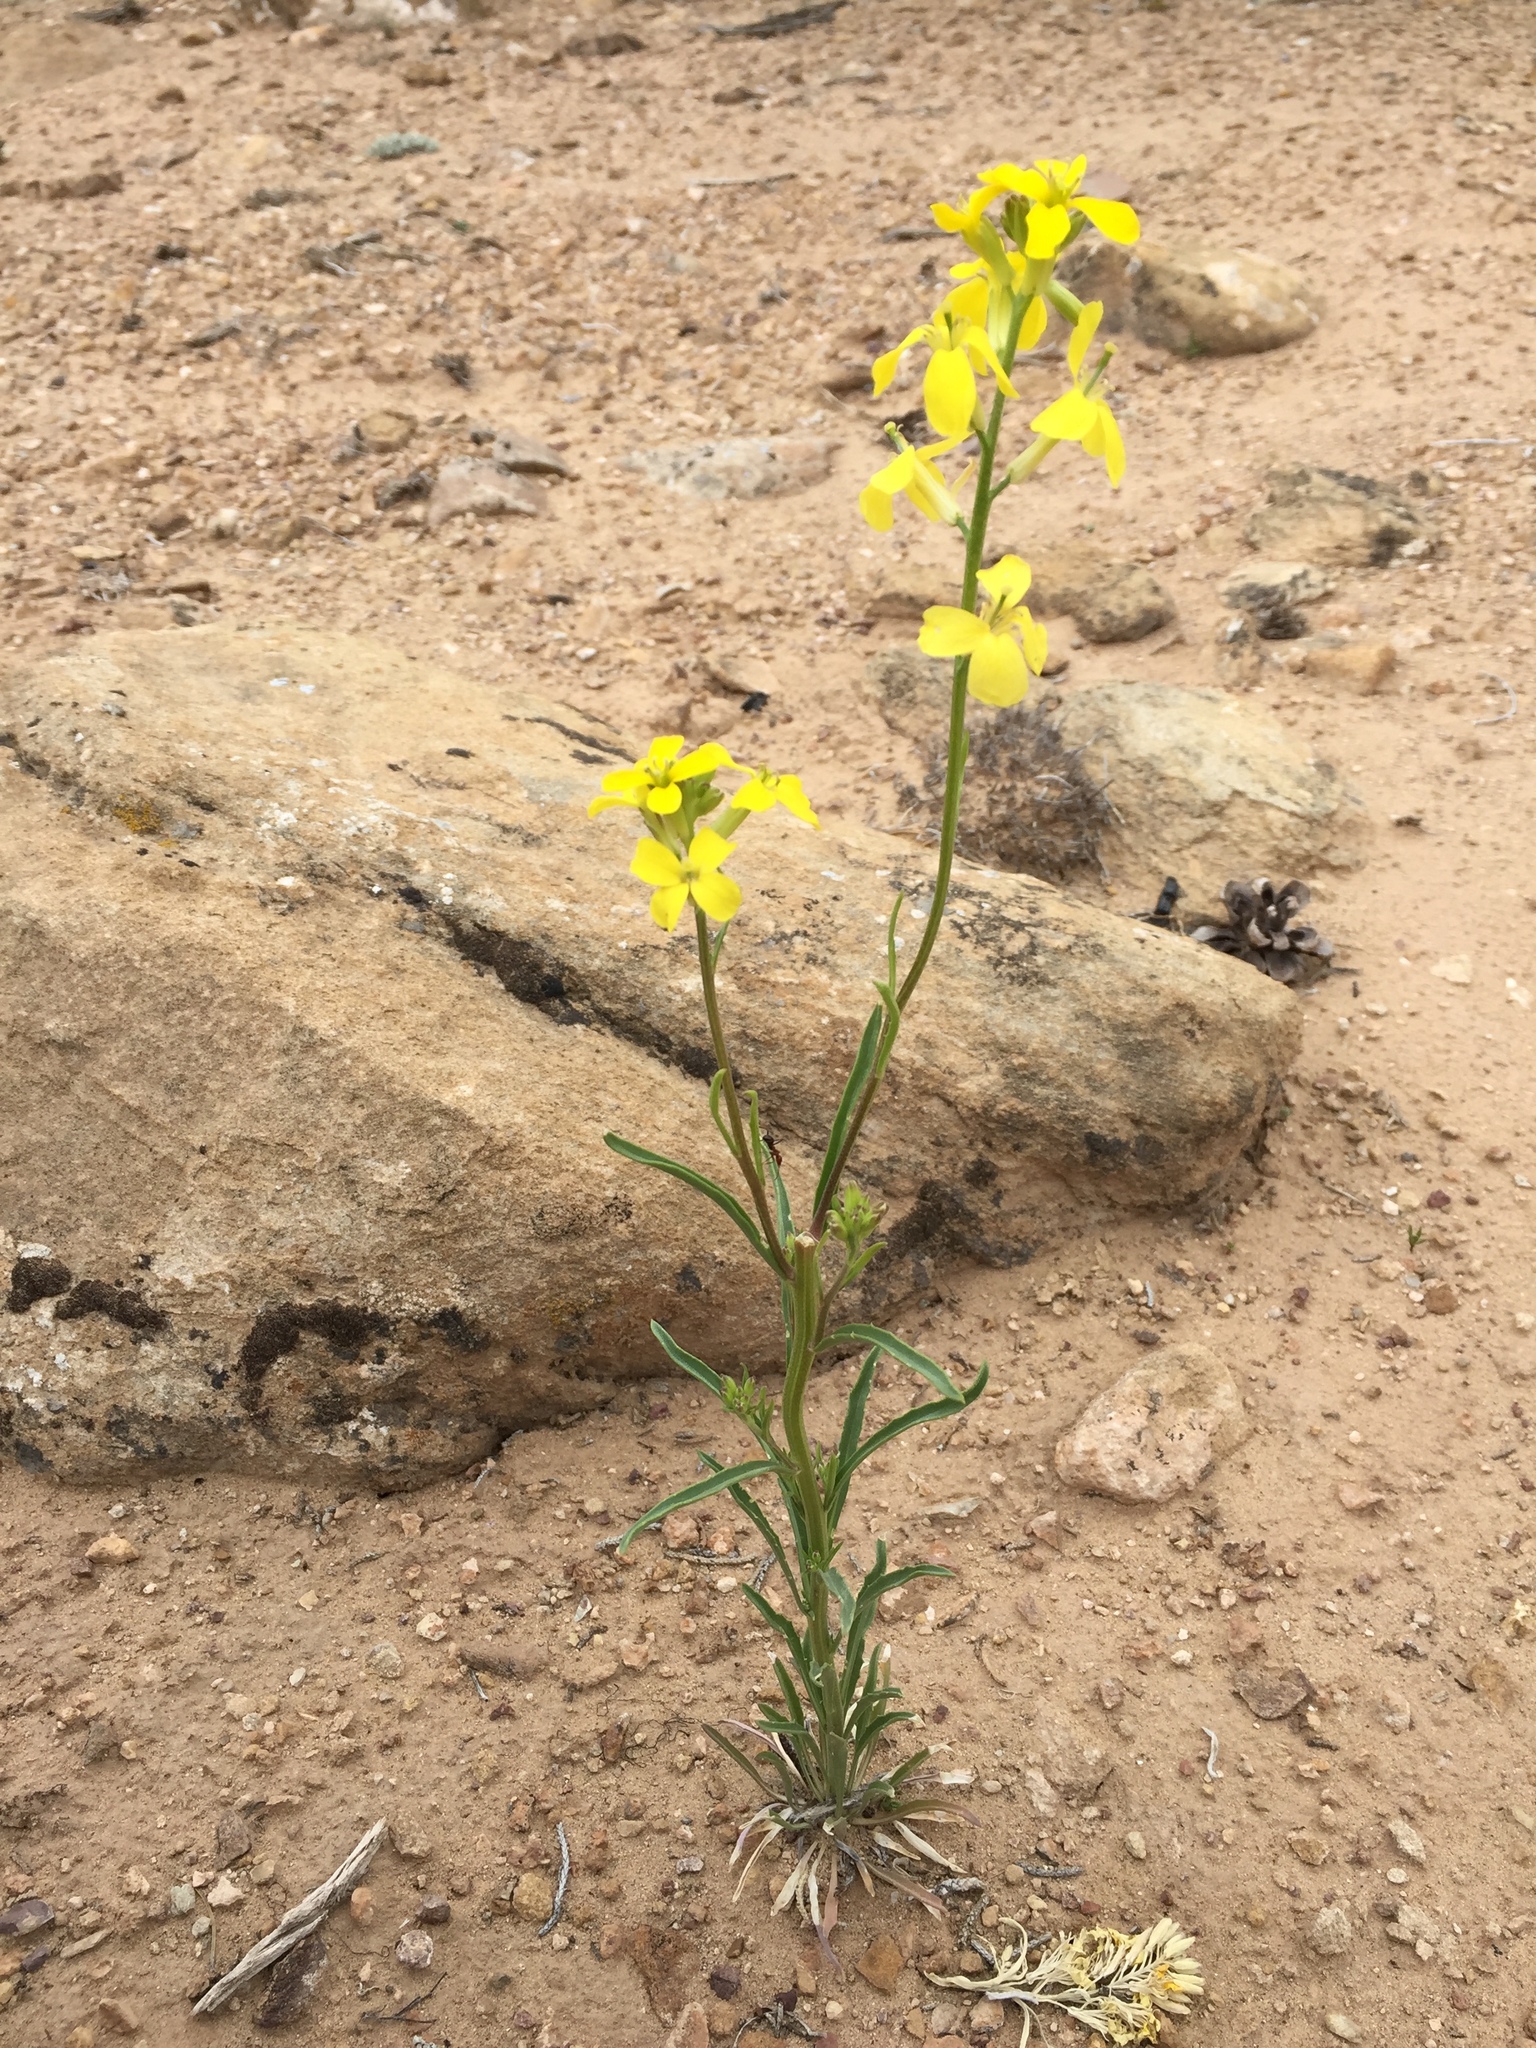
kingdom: Plantae
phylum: Tracheophyta
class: Magnoliopsida
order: Brassicales
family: Brassicaceae
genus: Erysimum
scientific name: Erysimum capitatum
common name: Western wallflower
